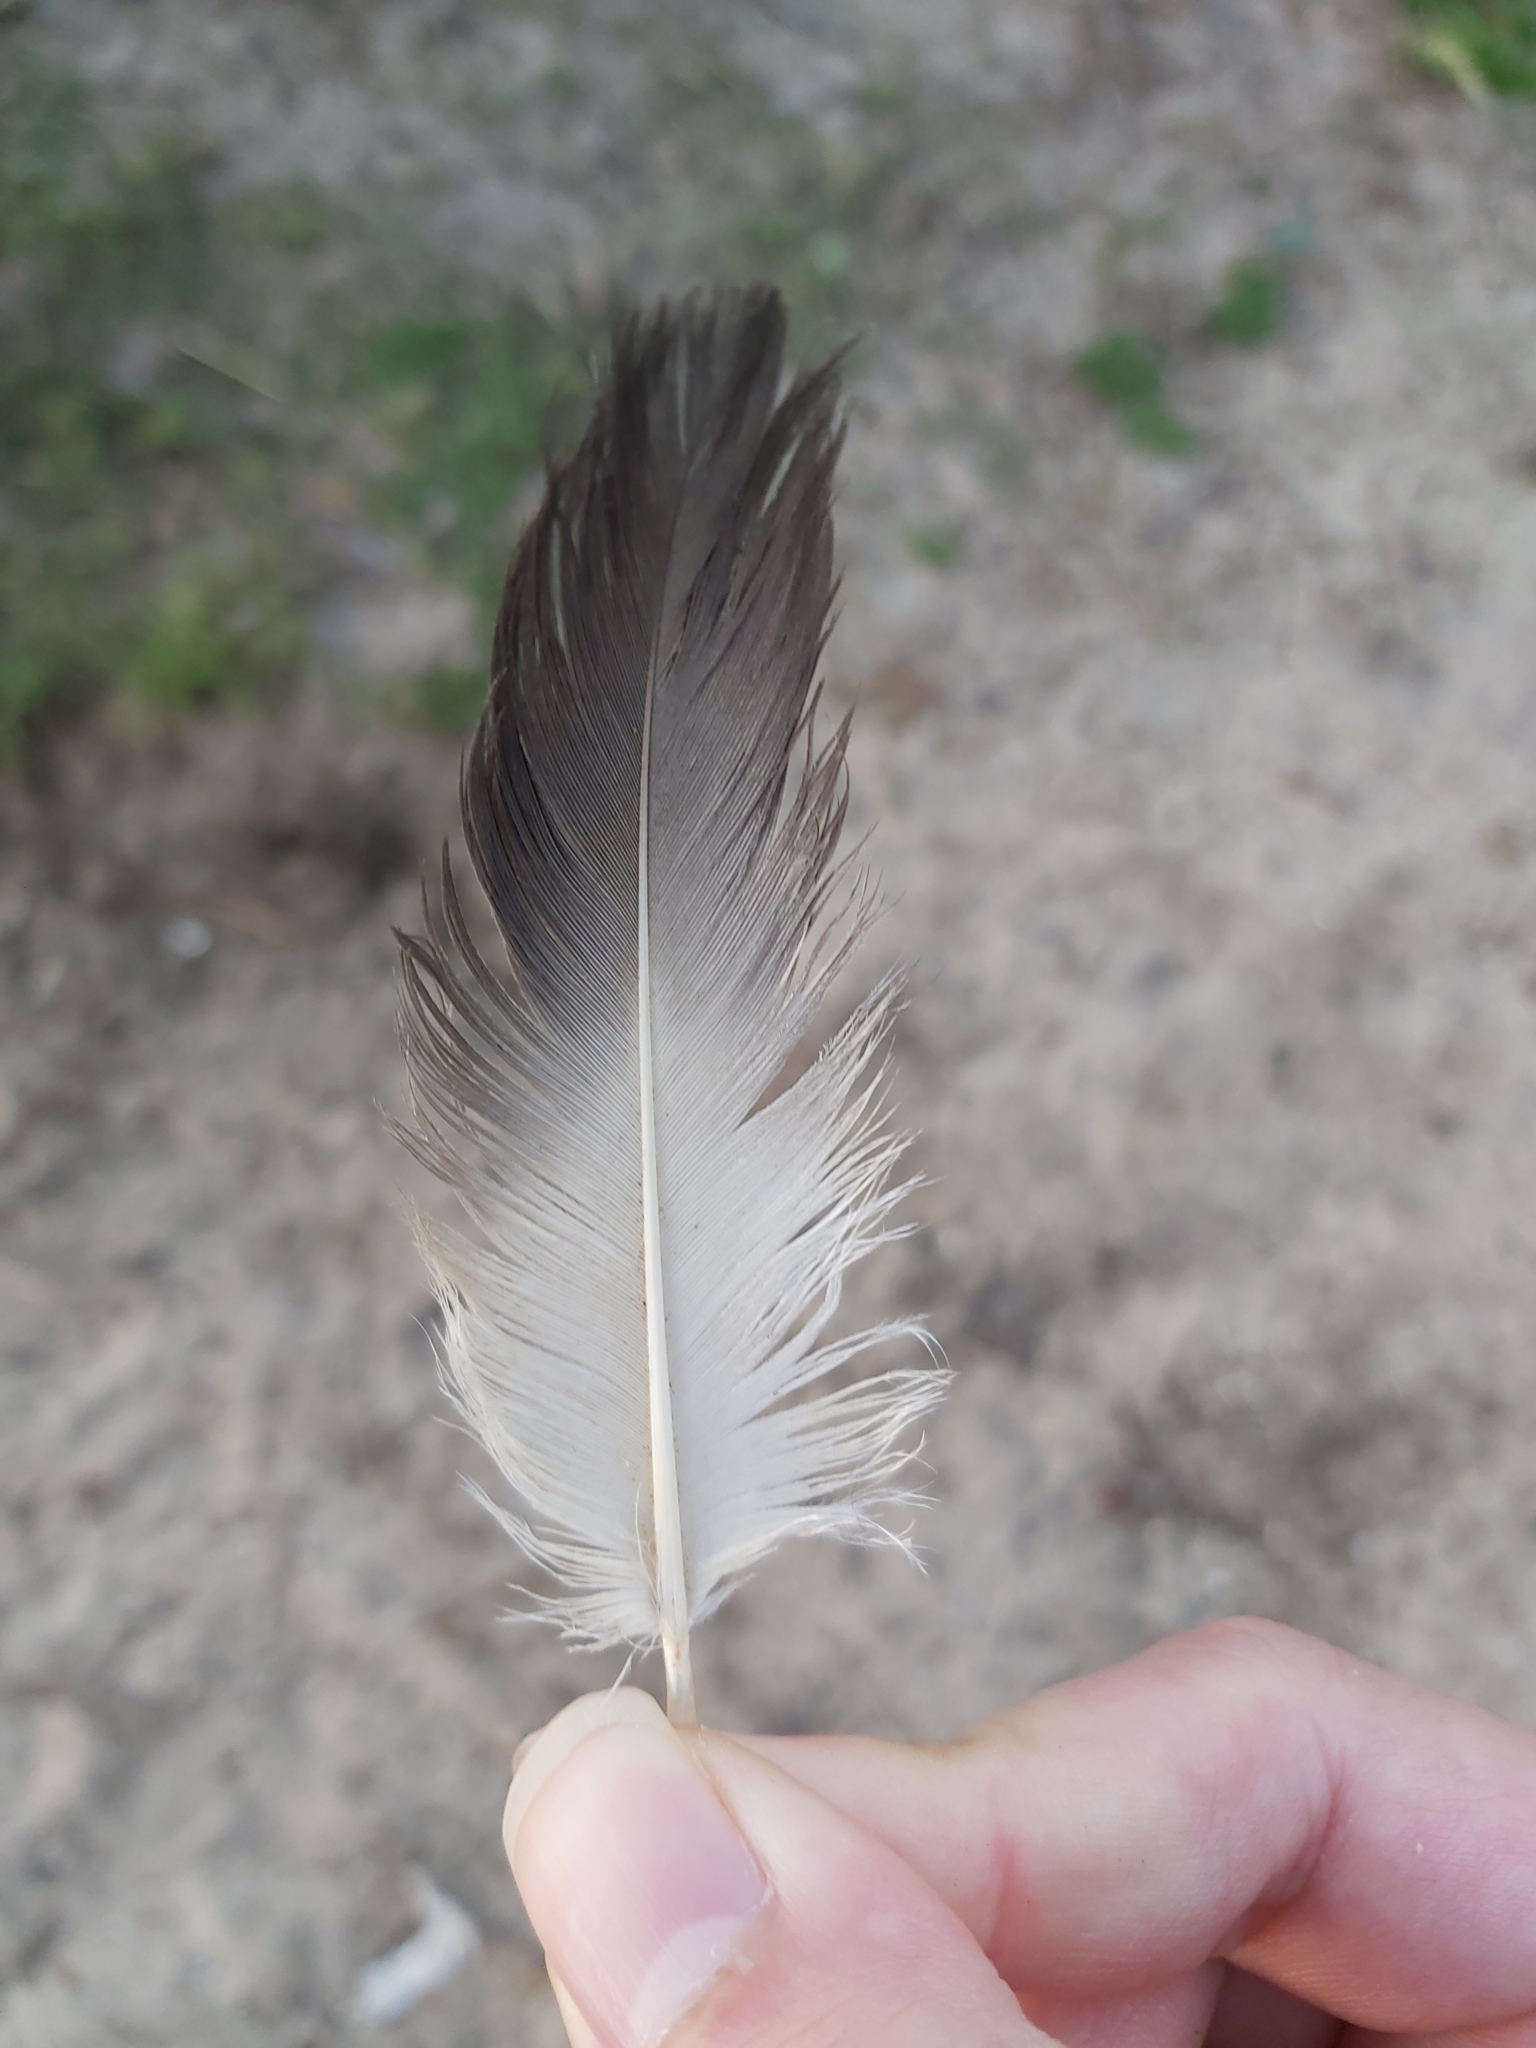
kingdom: Animalia
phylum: Chordata
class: Aves
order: Suliformes
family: Sulidae
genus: Morus
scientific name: Morus serrator
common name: Australasian gannet
